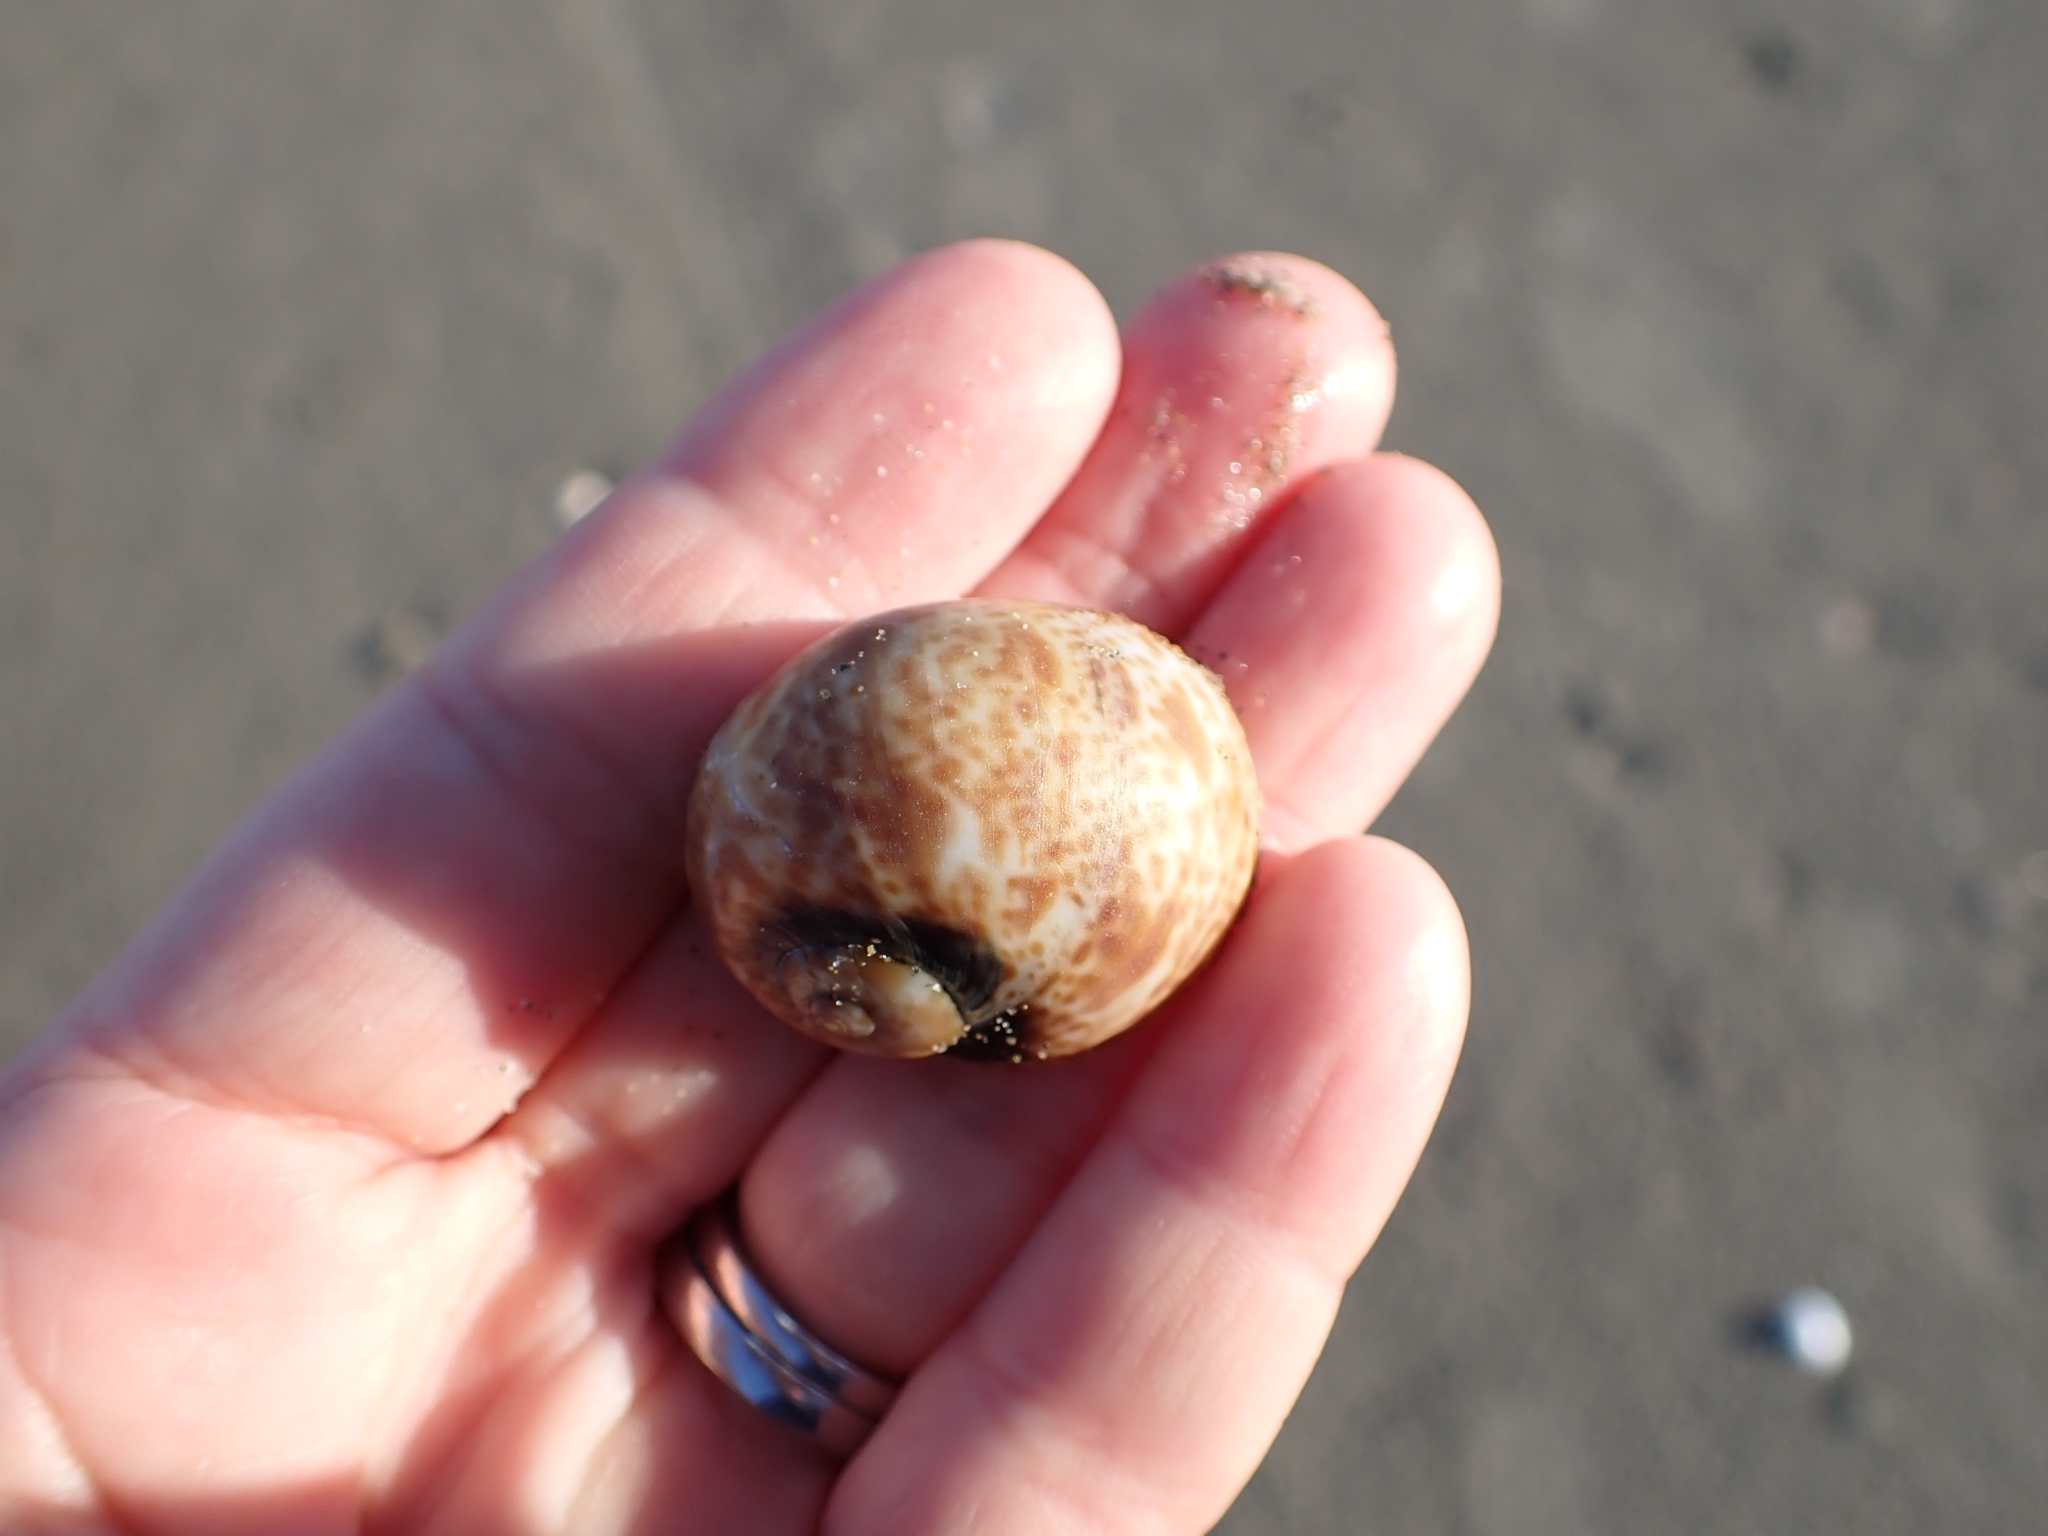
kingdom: Animalia
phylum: Mollusca
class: Gastropoda
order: Littorinimorpha
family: Naticidae
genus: Naticarius
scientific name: Naticarius hebraeus
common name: Hebrew moon shell
